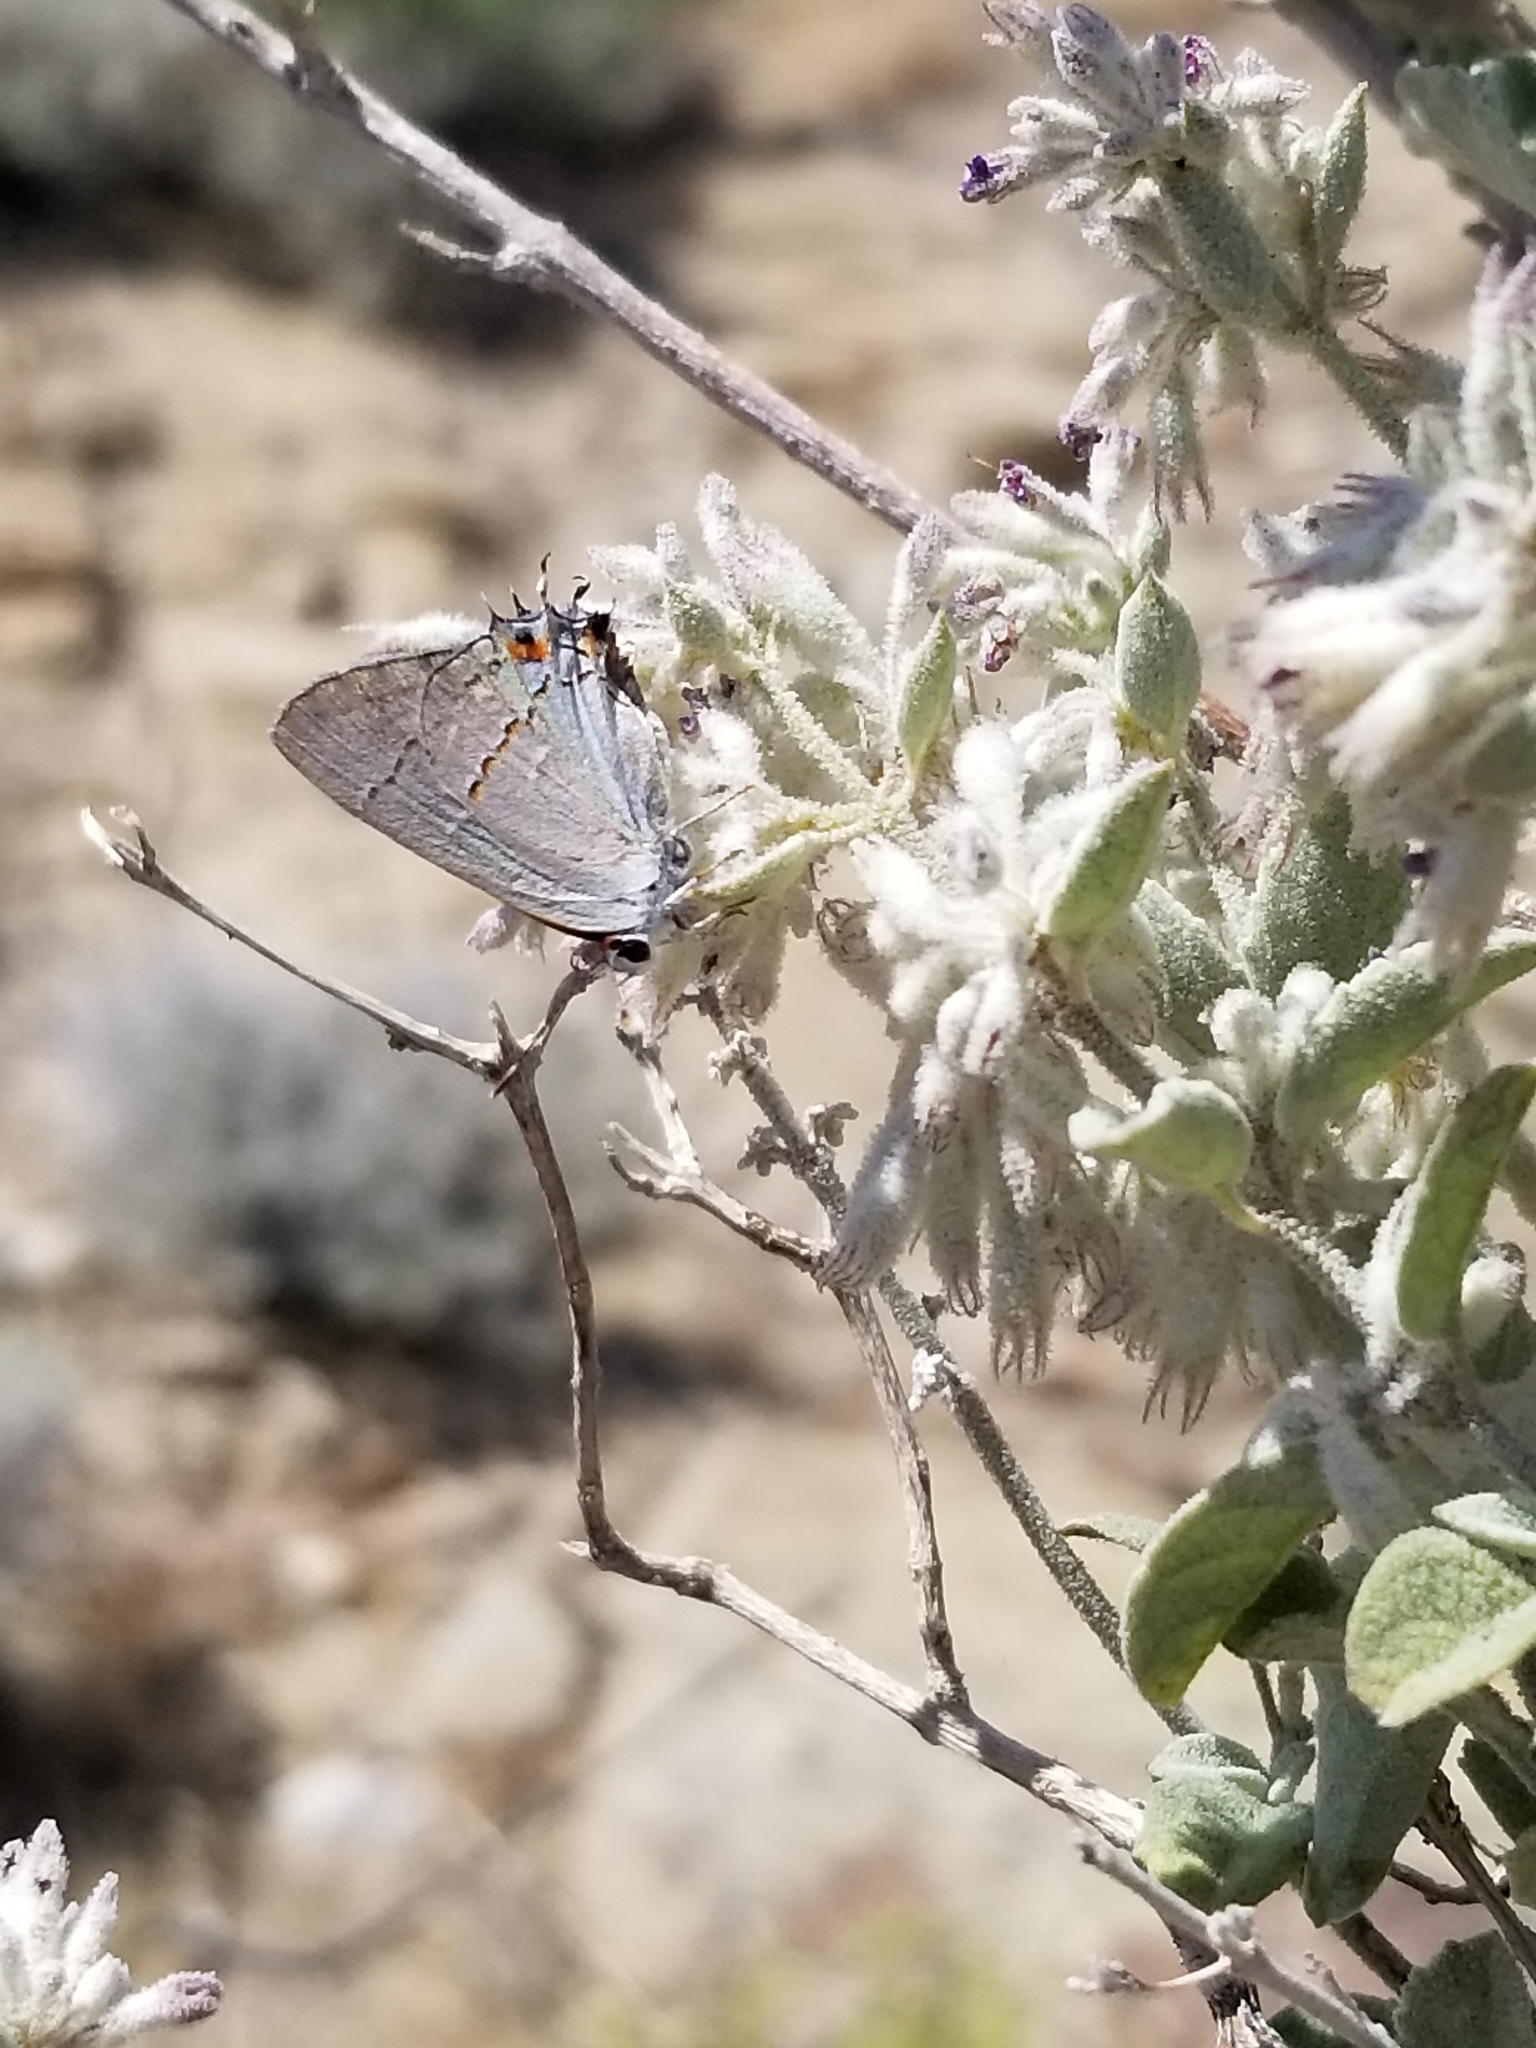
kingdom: Animalia
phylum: Arthropoda
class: Insecta
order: Lepidoptera
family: Lycaenidae
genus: Strymon
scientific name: Strymon melinus
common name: Gray hairstreak
